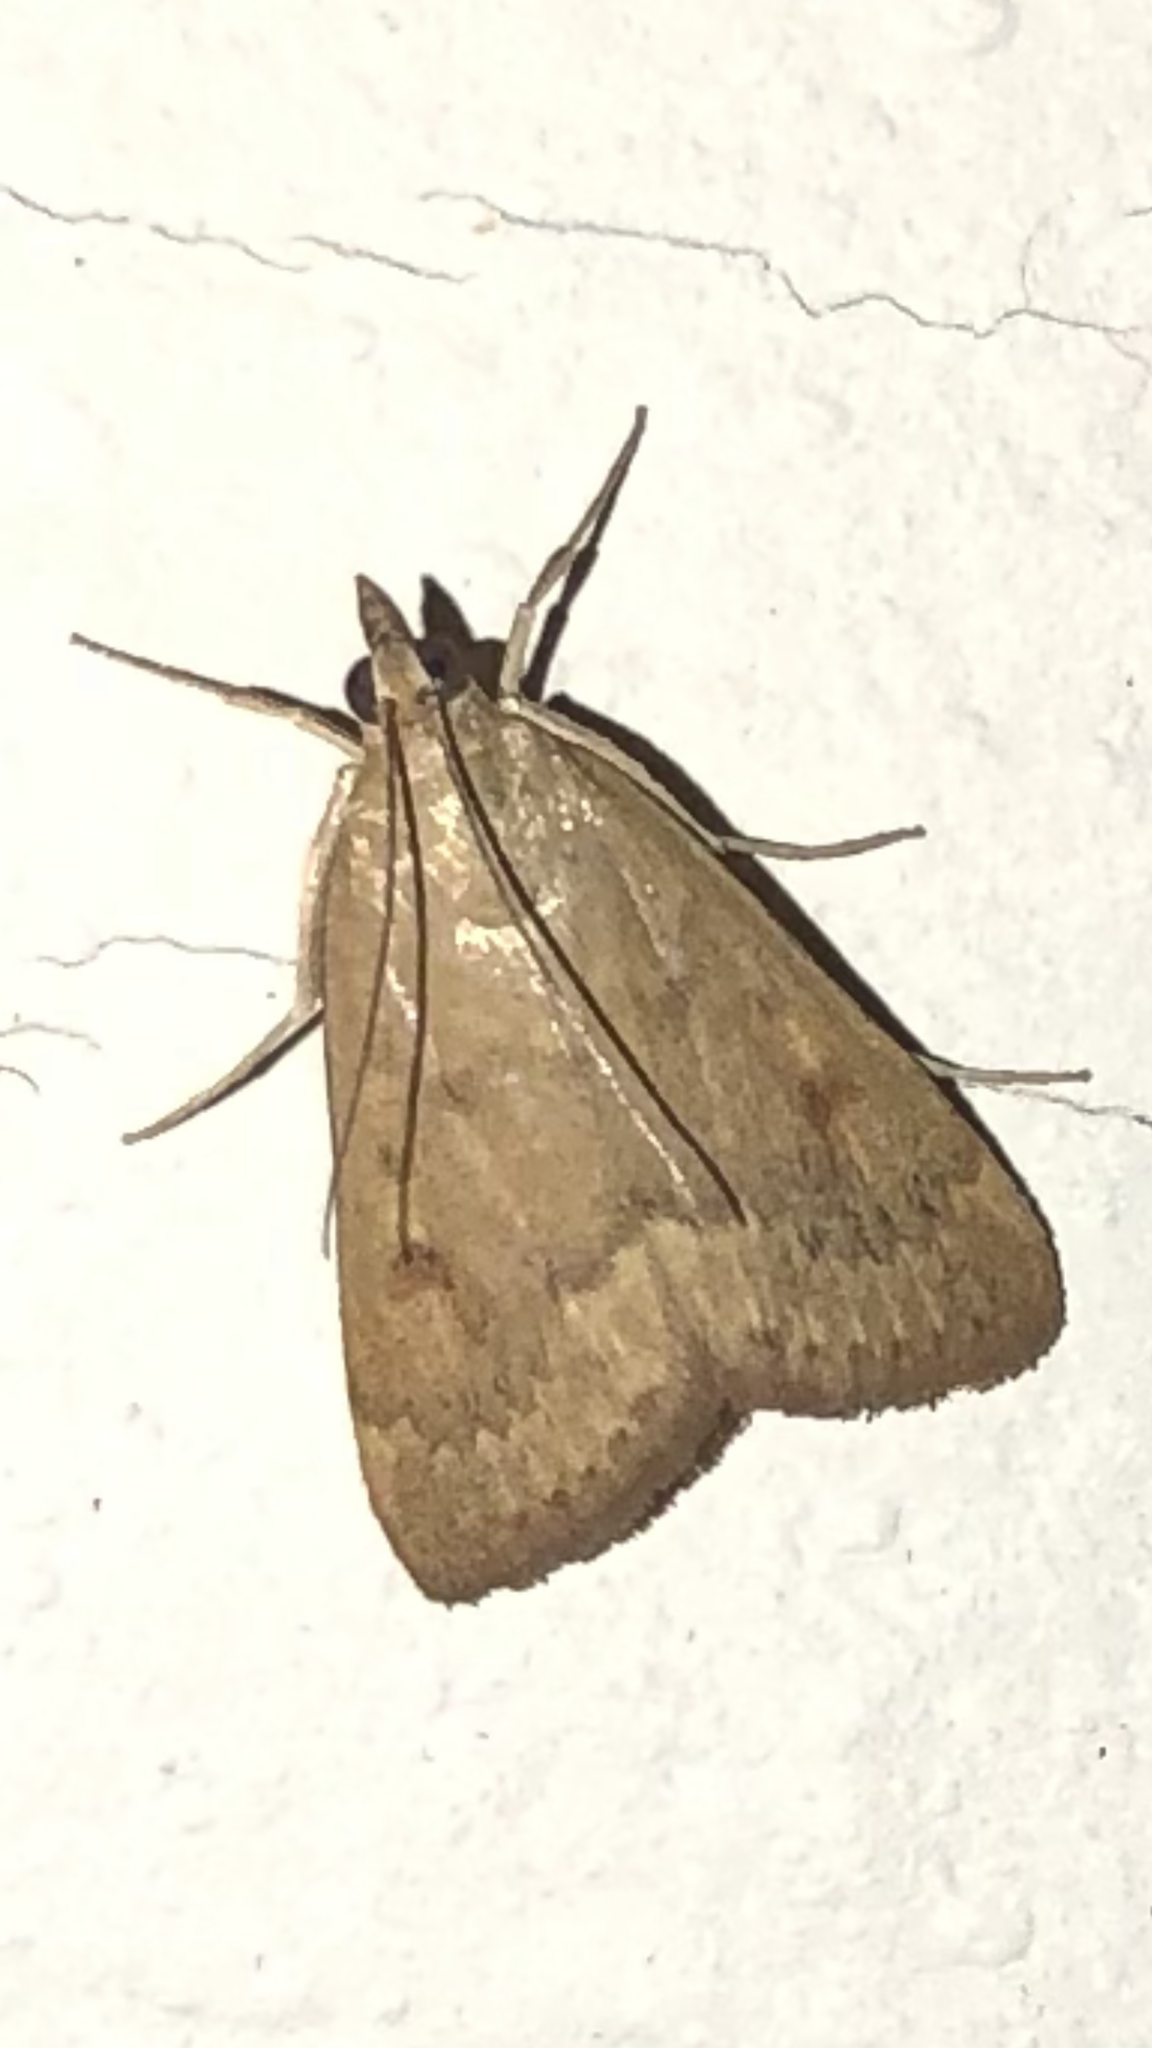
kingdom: Animalia
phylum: Arthropoda
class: Insecta
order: Lepidoptera
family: Crambidae
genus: Achyra
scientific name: Achyra rantalis
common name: Garden webworm
